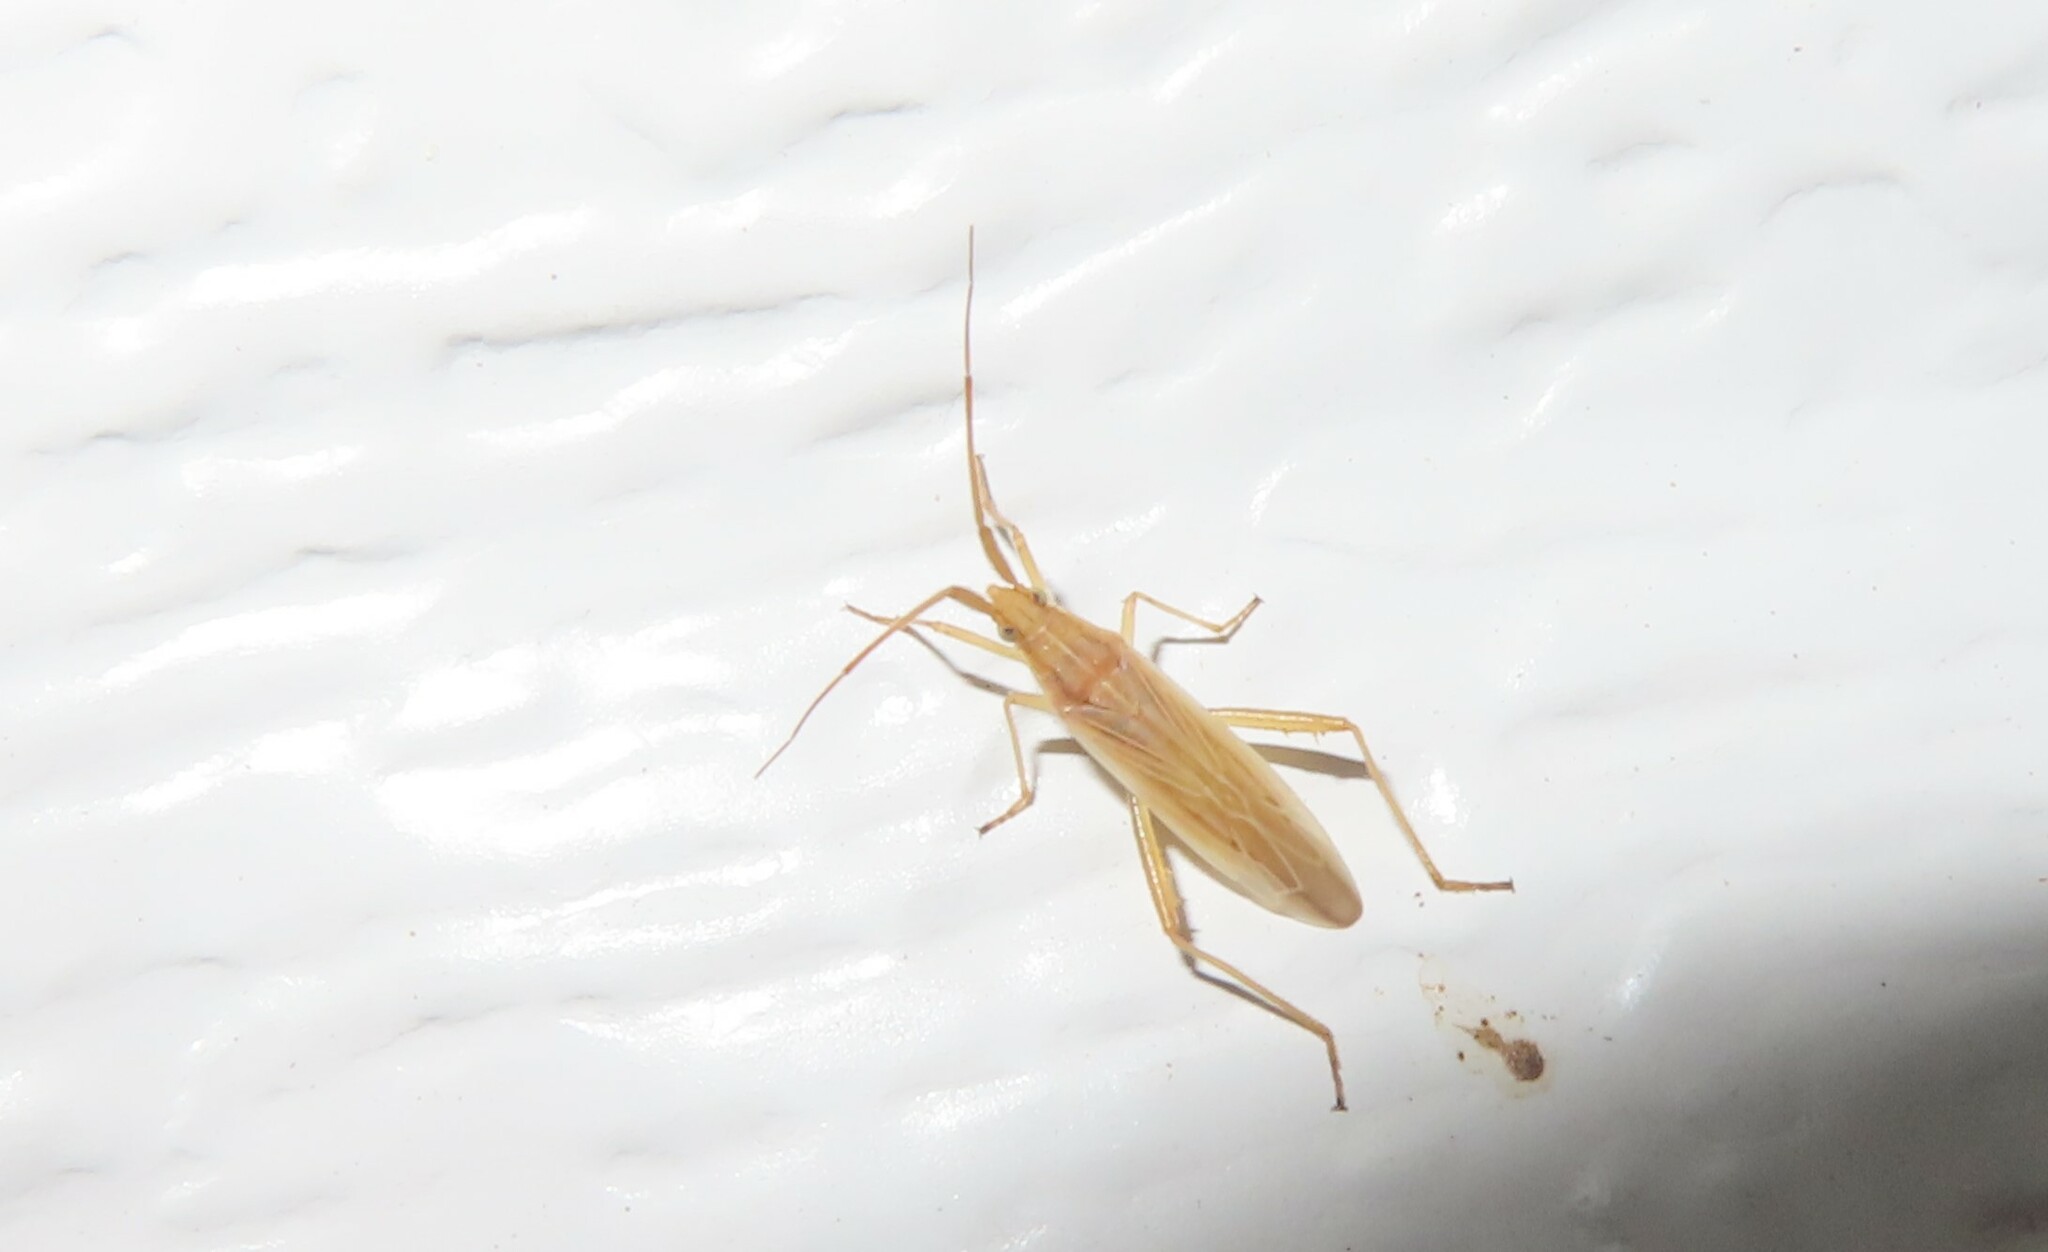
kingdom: Animalia
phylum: Arthropoda
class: Insecta
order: Hemiptera
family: Miridae
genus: Stenodema
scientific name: Stenodema trispinosa
